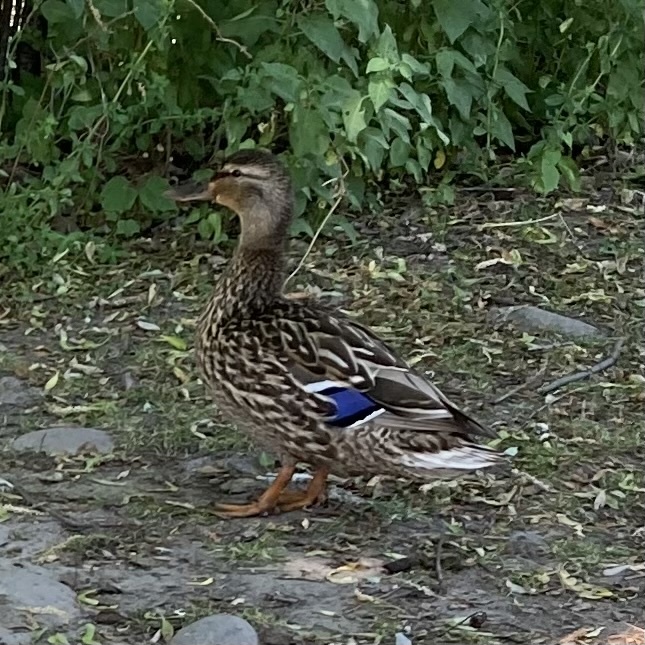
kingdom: Animalia
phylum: Chordata
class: Aves
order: Anseriformes
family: Anatidae
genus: Anas
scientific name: Anas platyrhynchos
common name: Mallard
